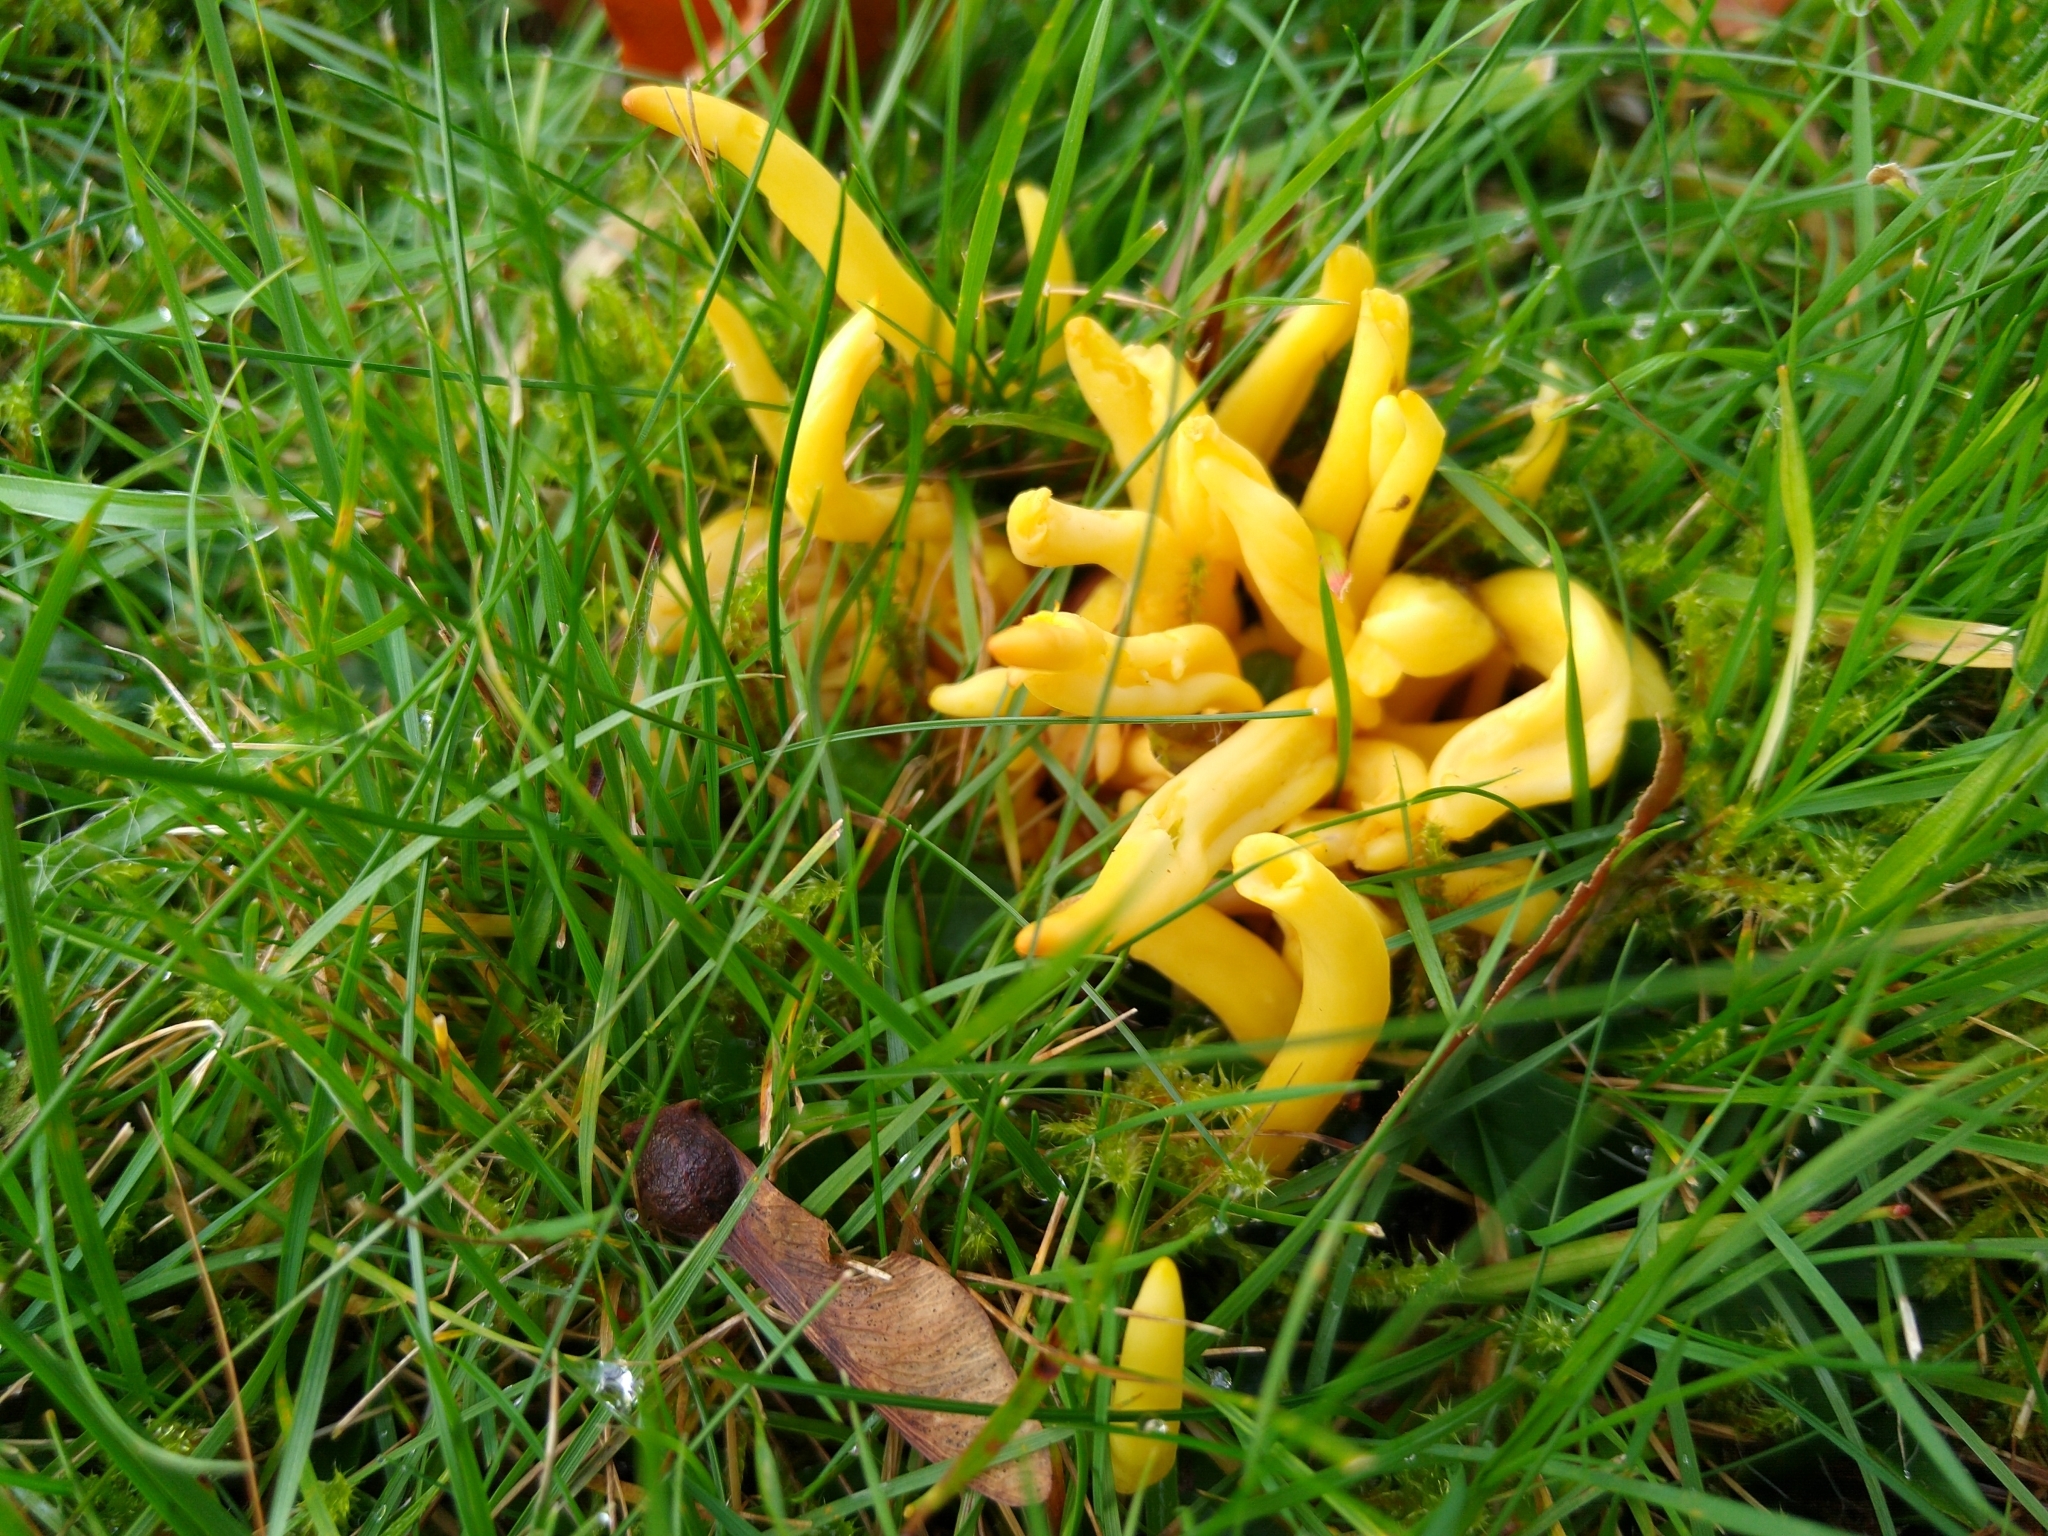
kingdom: Fungi
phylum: Basidiomycota
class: Agaricomycetes
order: Agaricales
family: Clavariaceae
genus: Clavulinopsis
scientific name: Clavulinopsis fusiformis
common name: Golden spindles
